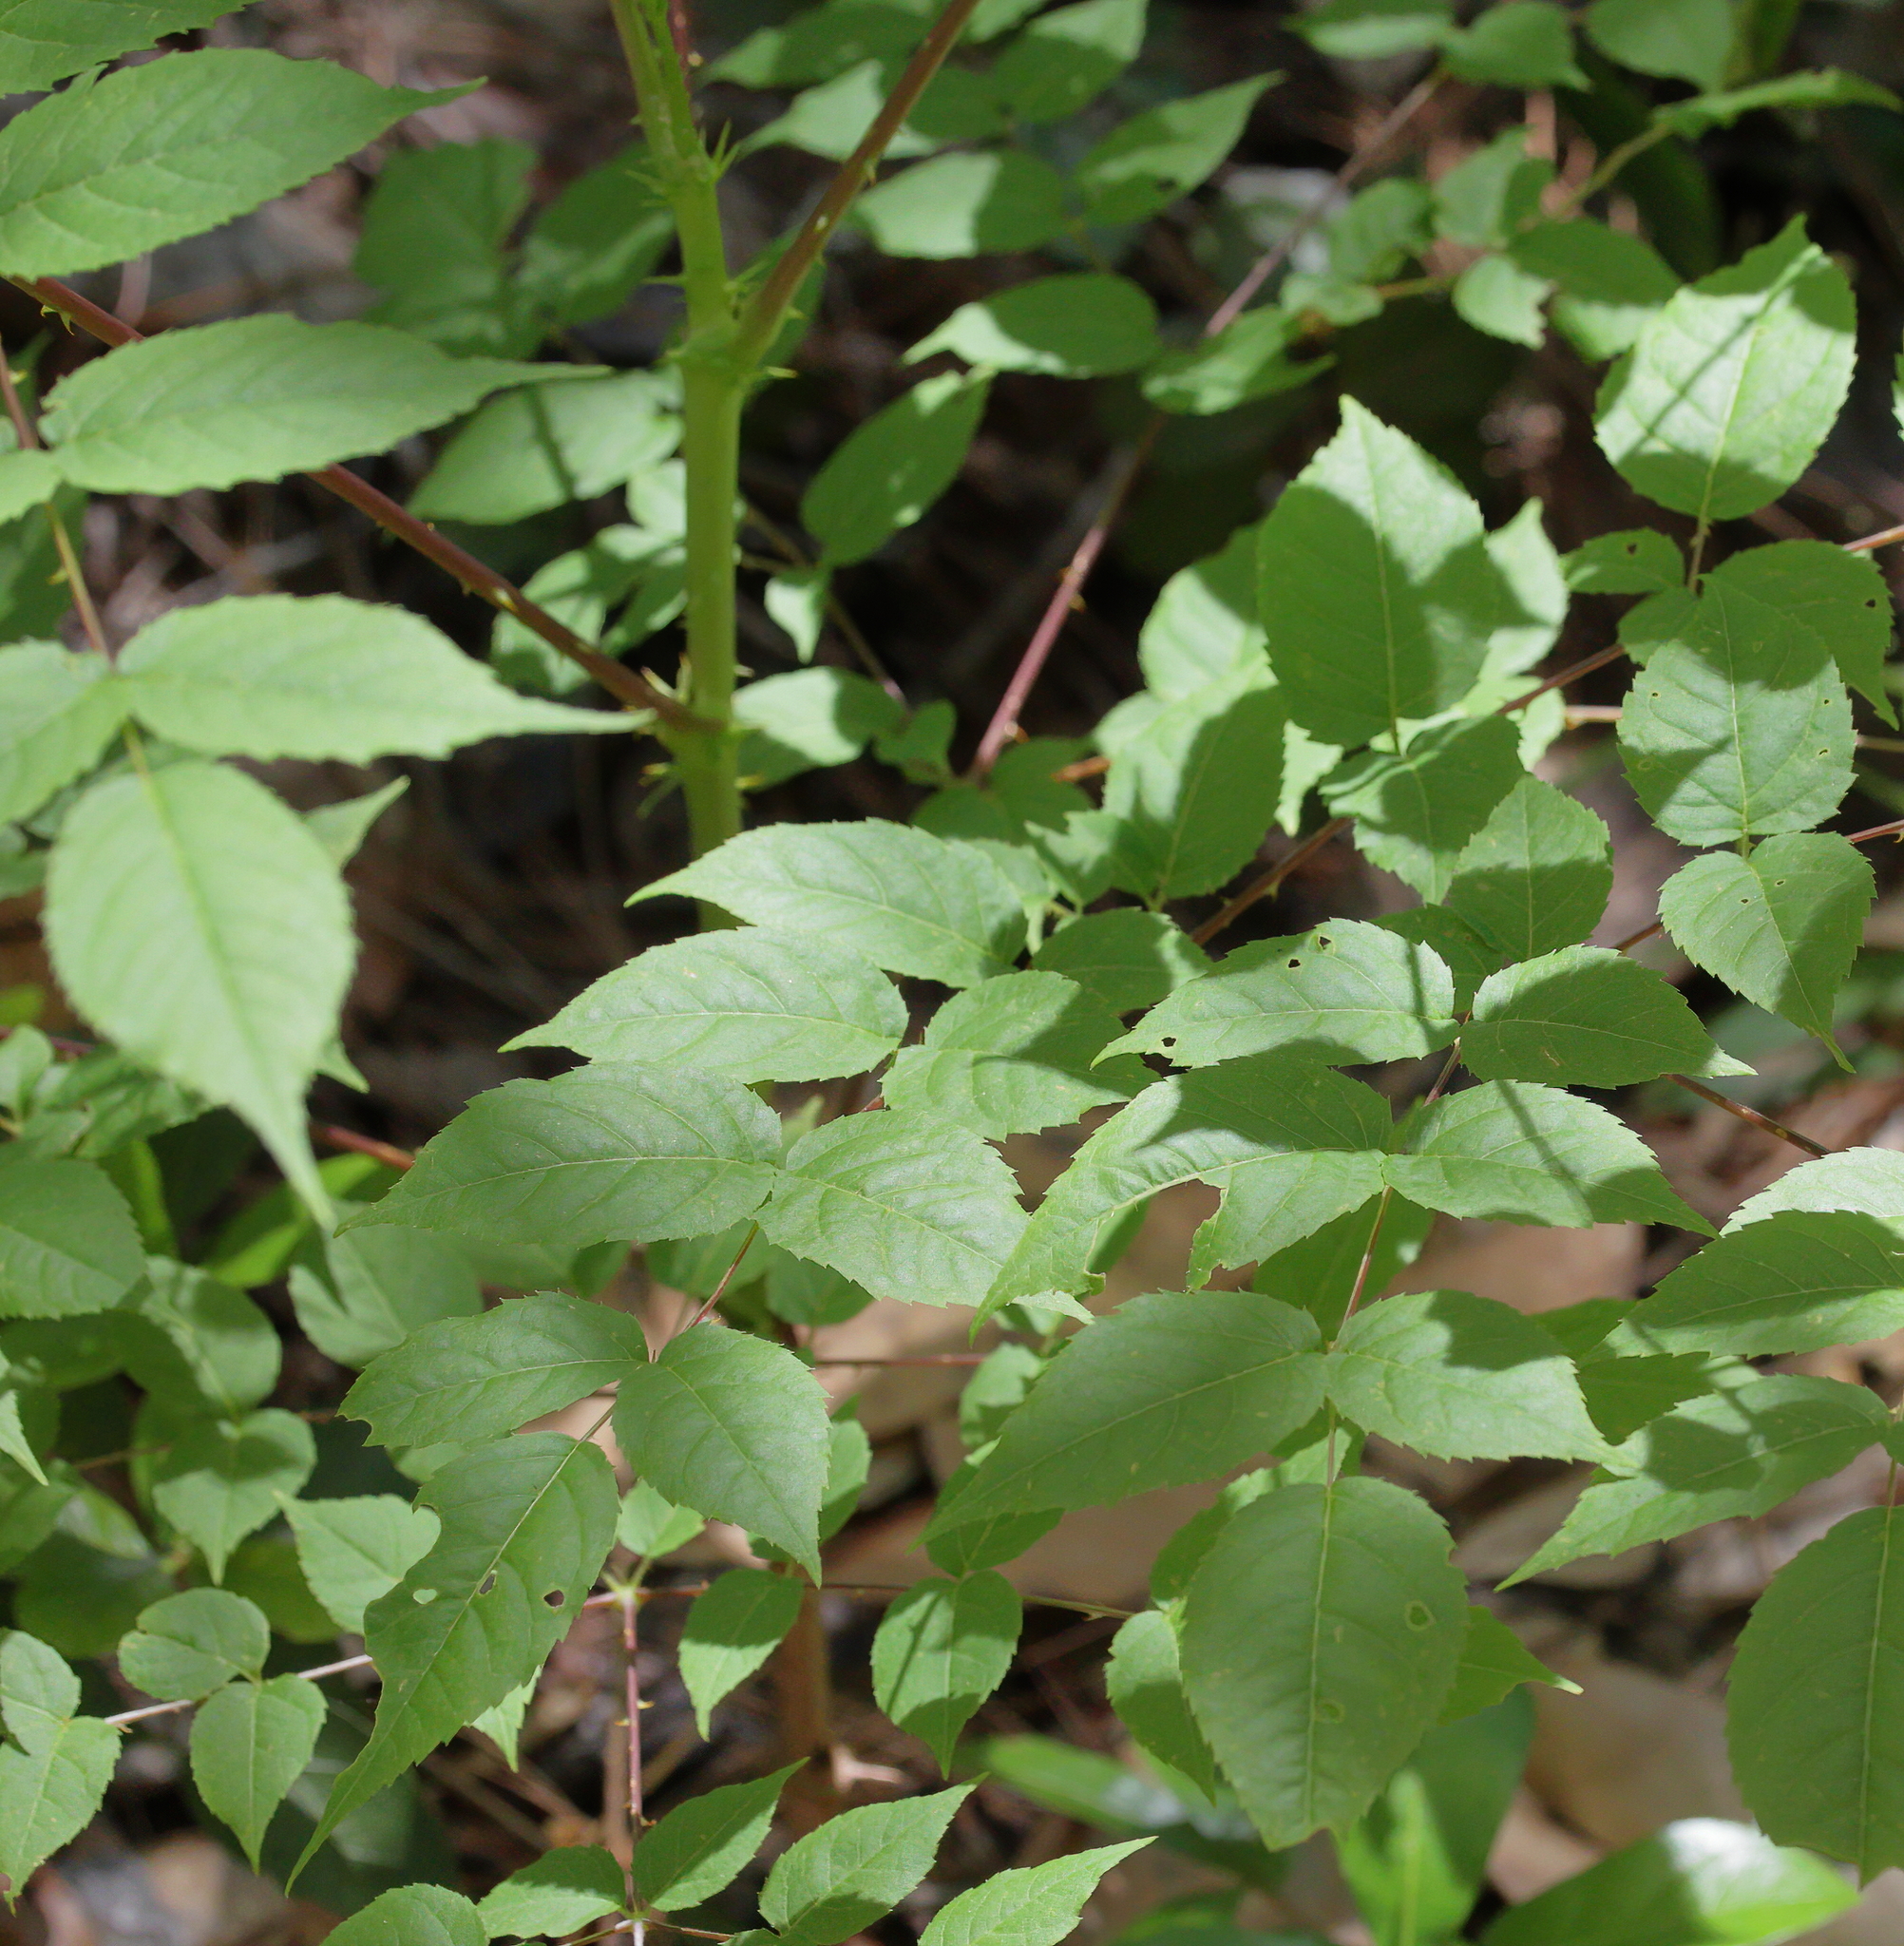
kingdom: Plantae
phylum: Tracheophyta
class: Magnoliopsida
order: Apiales
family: Araliaceae
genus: Aralia
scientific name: Aralia spinosa
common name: Hercules'-club
